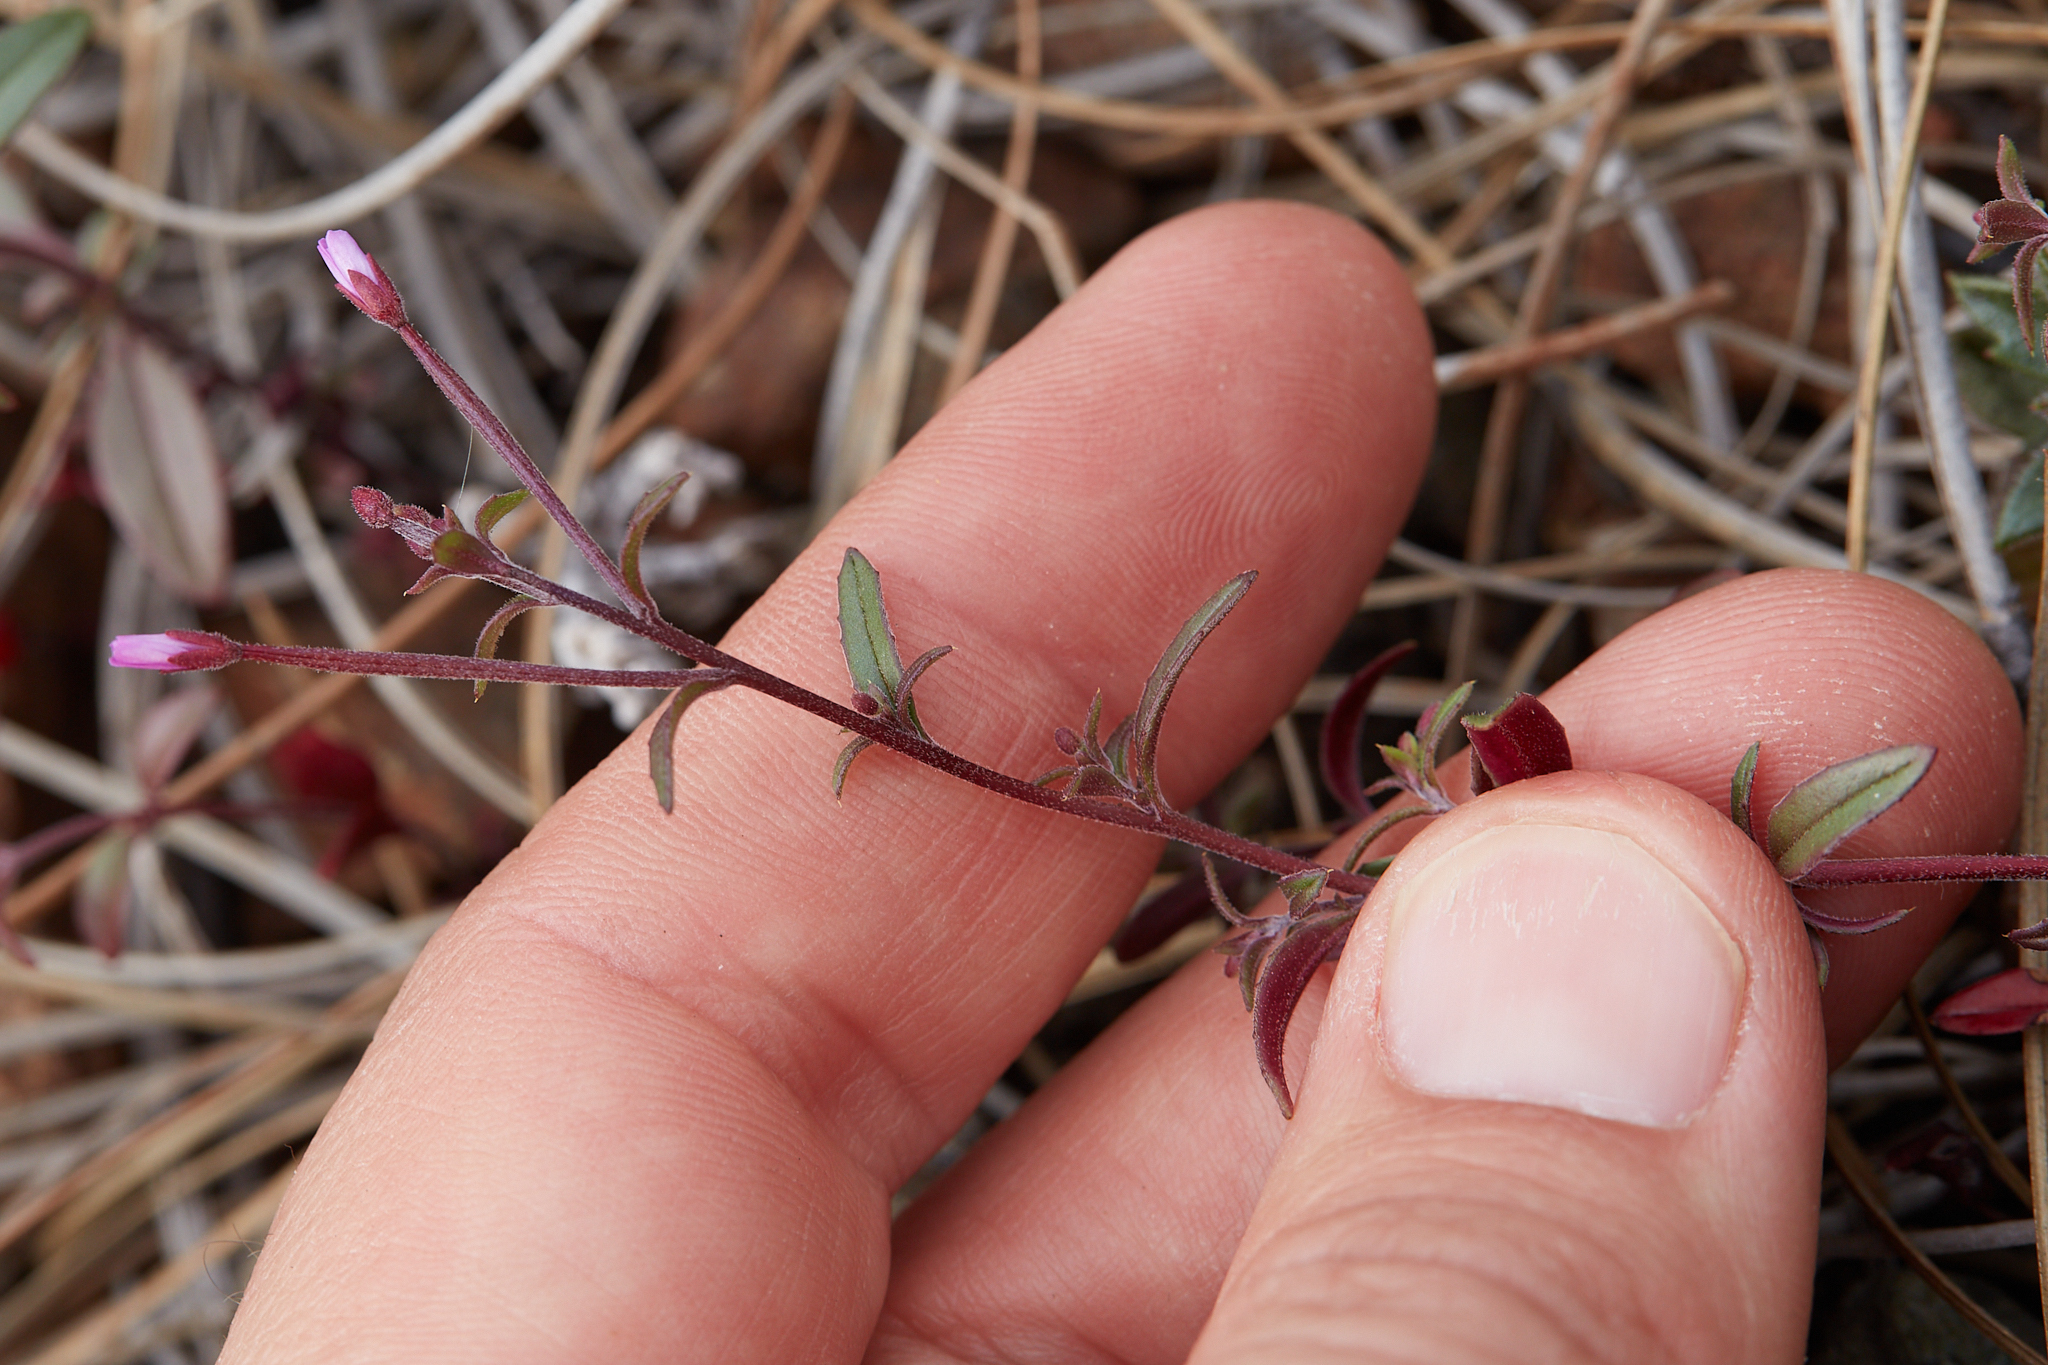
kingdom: Plantae
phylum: Tracheophyta
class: Magnoliopsida
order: Myrtales
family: Onagraceae
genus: Epilobium
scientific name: Epilobium minutum
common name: Chaparral willowherb
